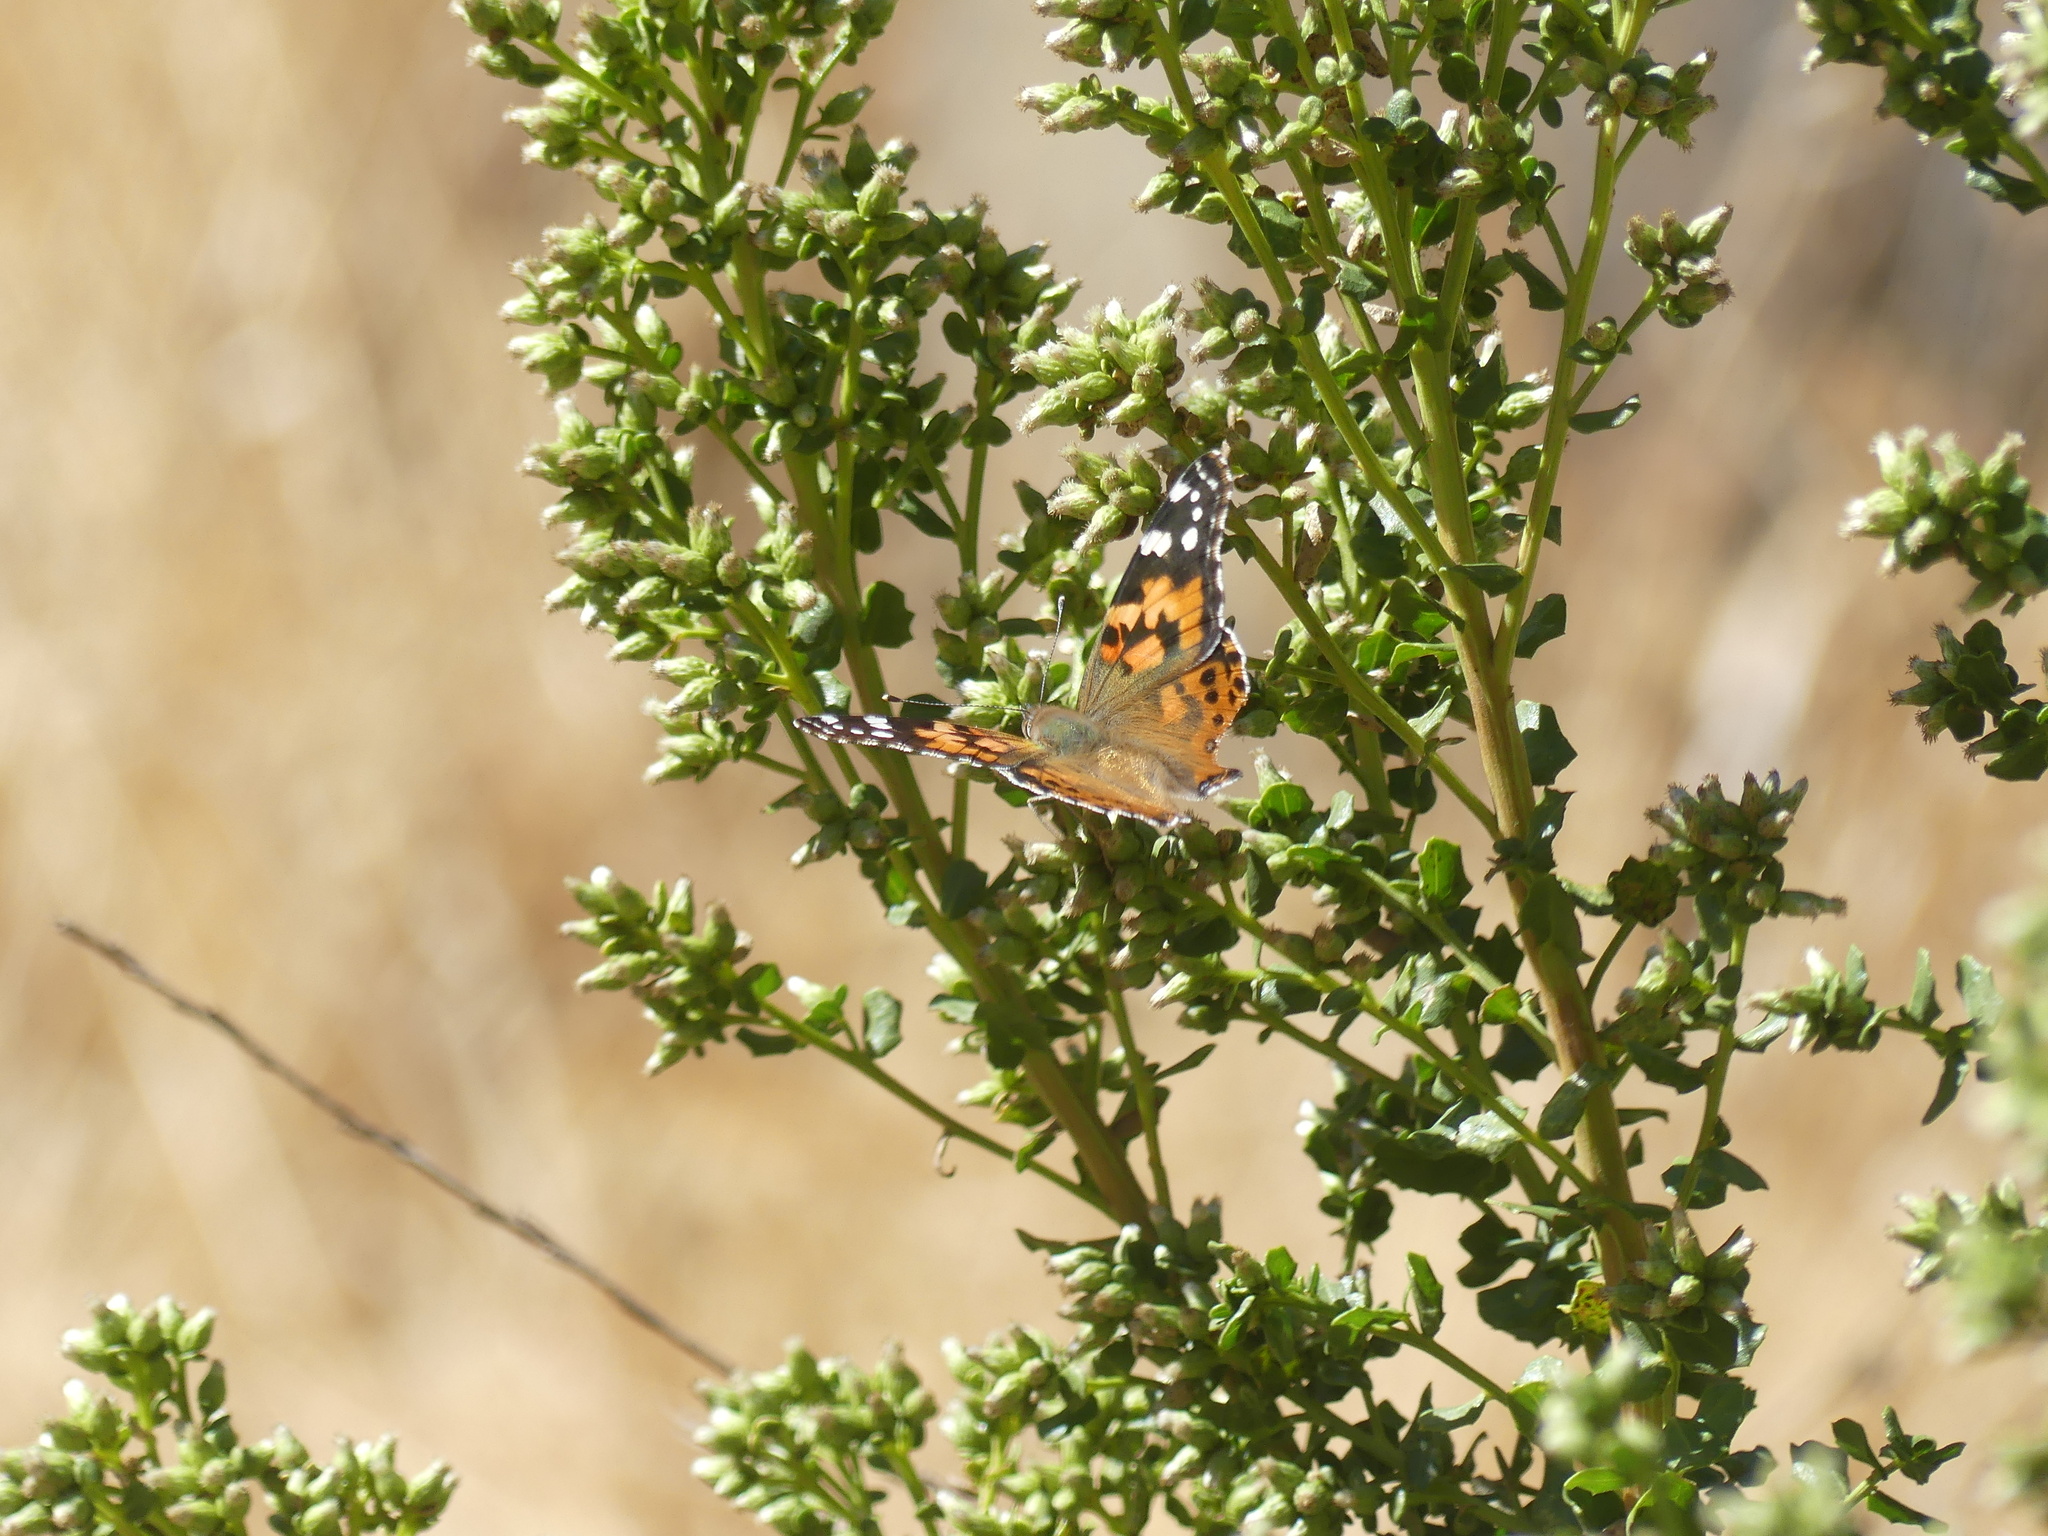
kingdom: Animalia
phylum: Arthropoda
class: Insecta
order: Lepidoptera
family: Nymphalidae
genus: Vanessa
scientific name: Vanessa cardui
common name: Painted lady
